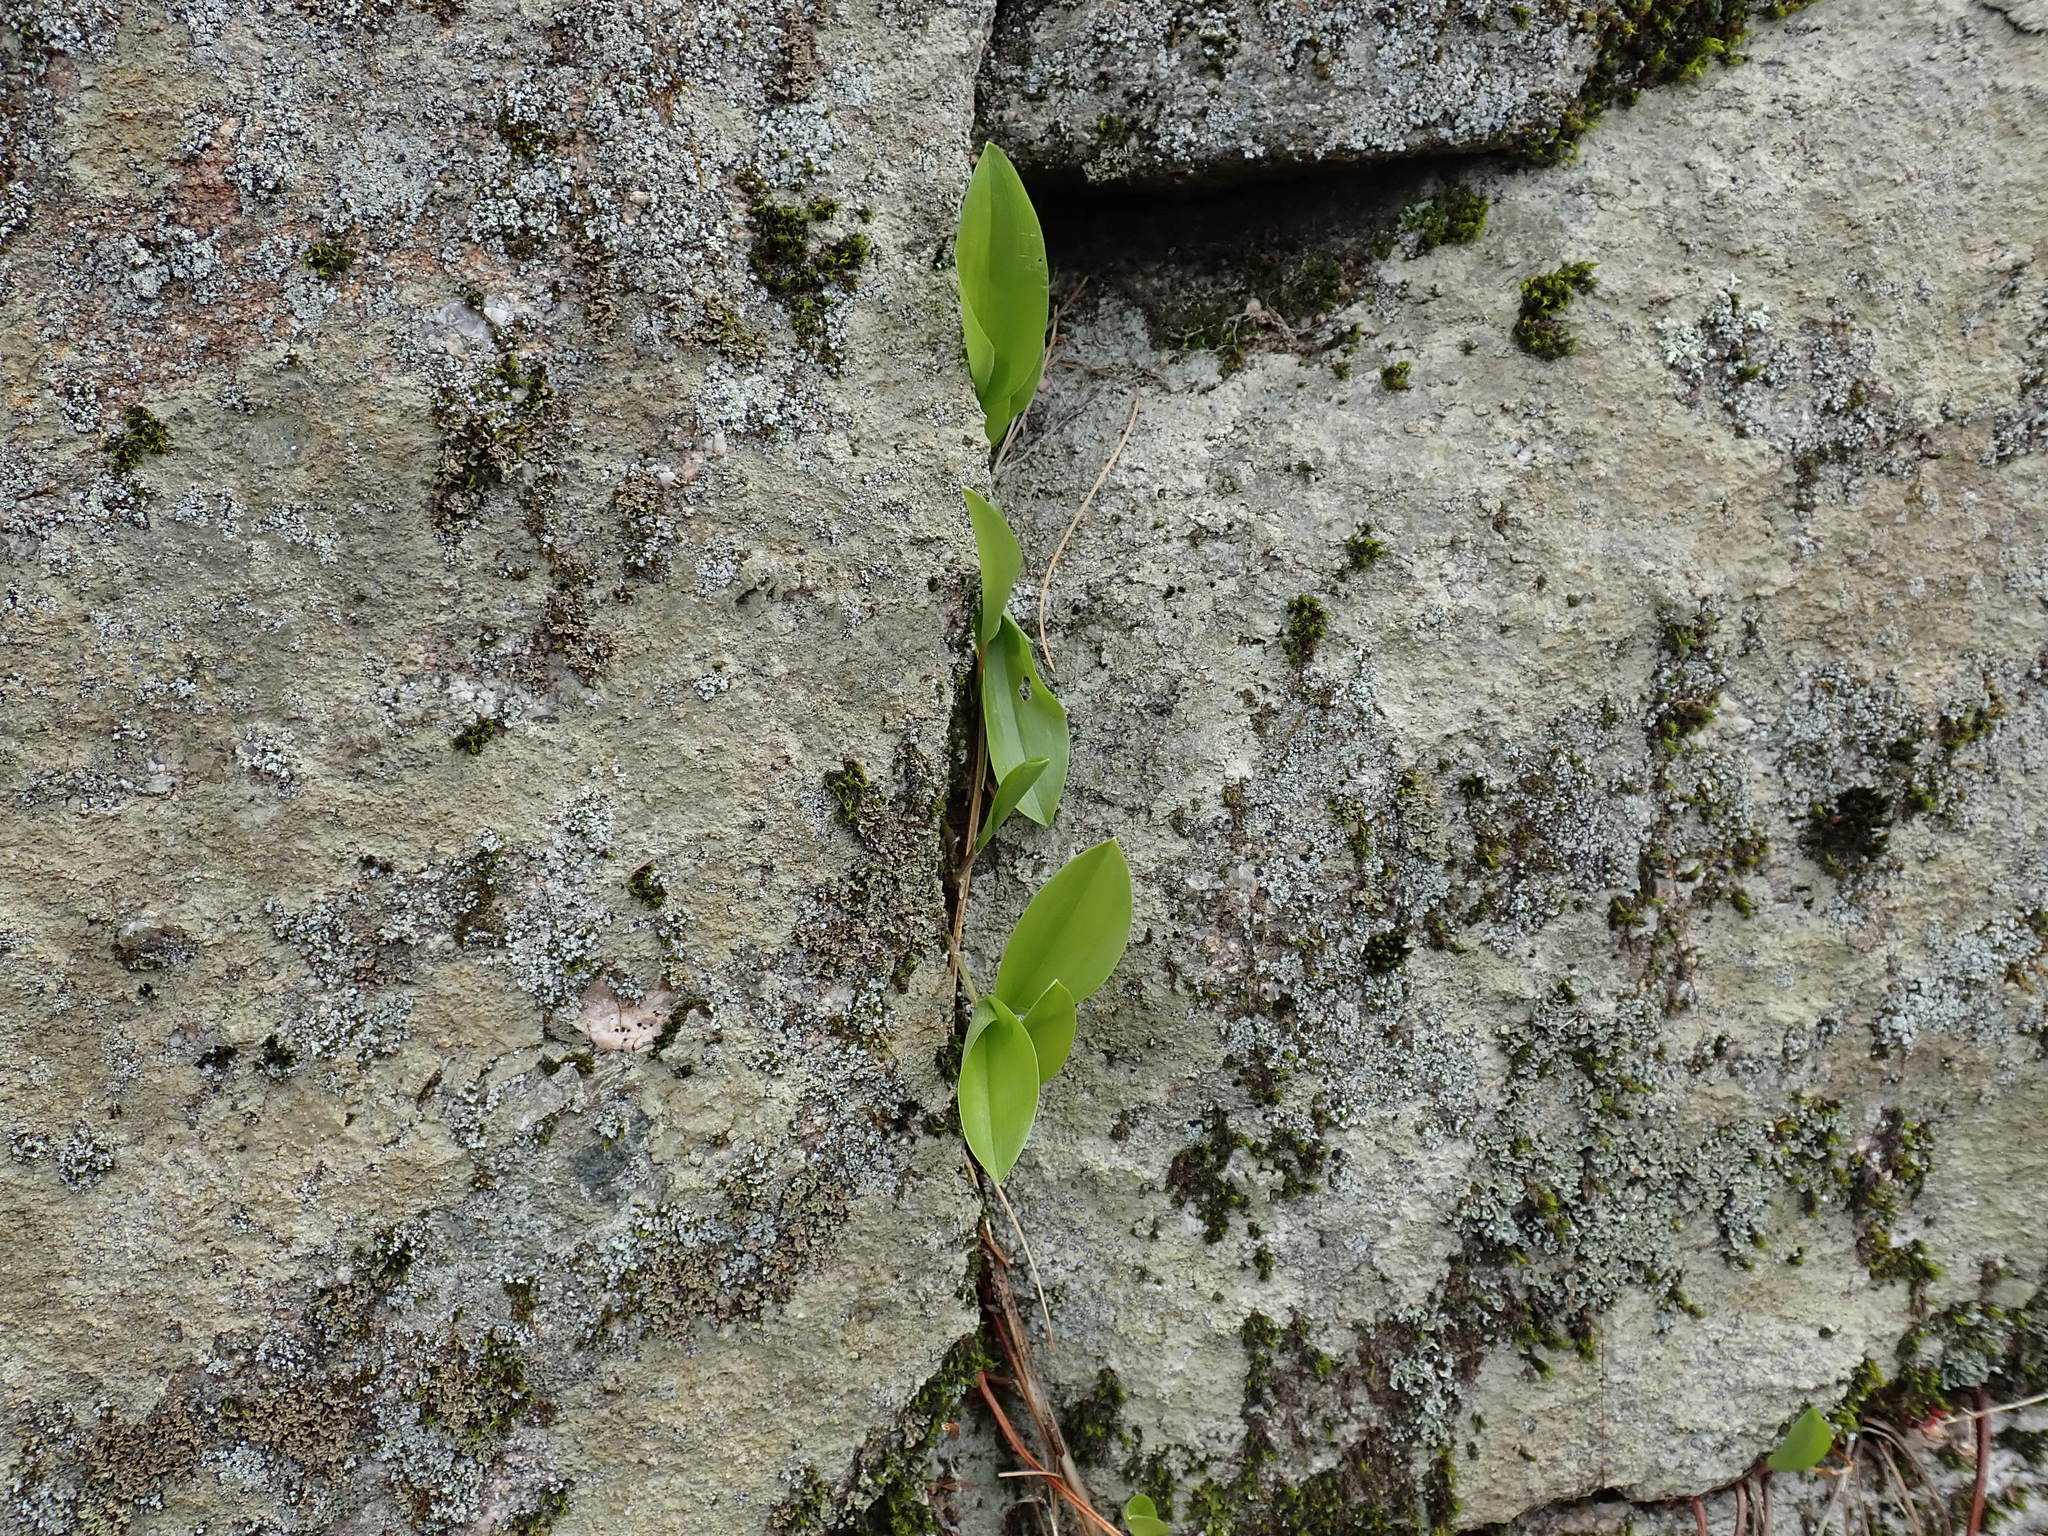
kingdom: Plantae
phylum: Tracheophyta
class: Liliopsida
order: Asparagales
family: Asparagaceae
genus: Maianthemum
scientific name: Maianthemum canadense
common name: False lily-of-the-valley
